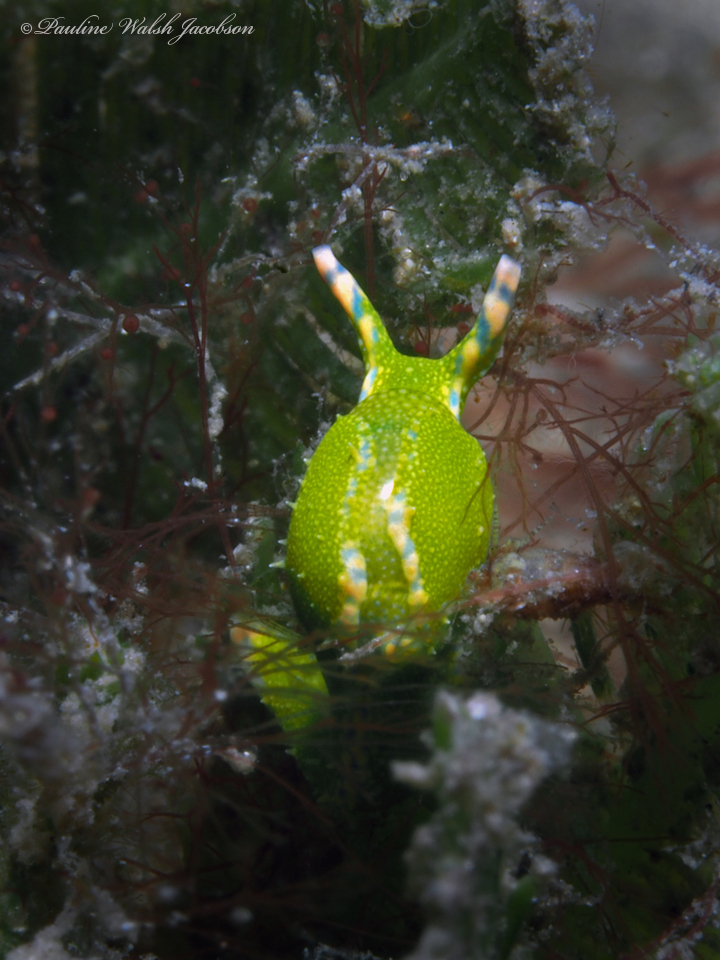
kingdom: Animalia
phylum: Mollusca
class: Gastropoda
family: Oxynoidae
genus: Oxynoe
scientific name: Oxynoe antillarum
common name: Antilles oxynoe
